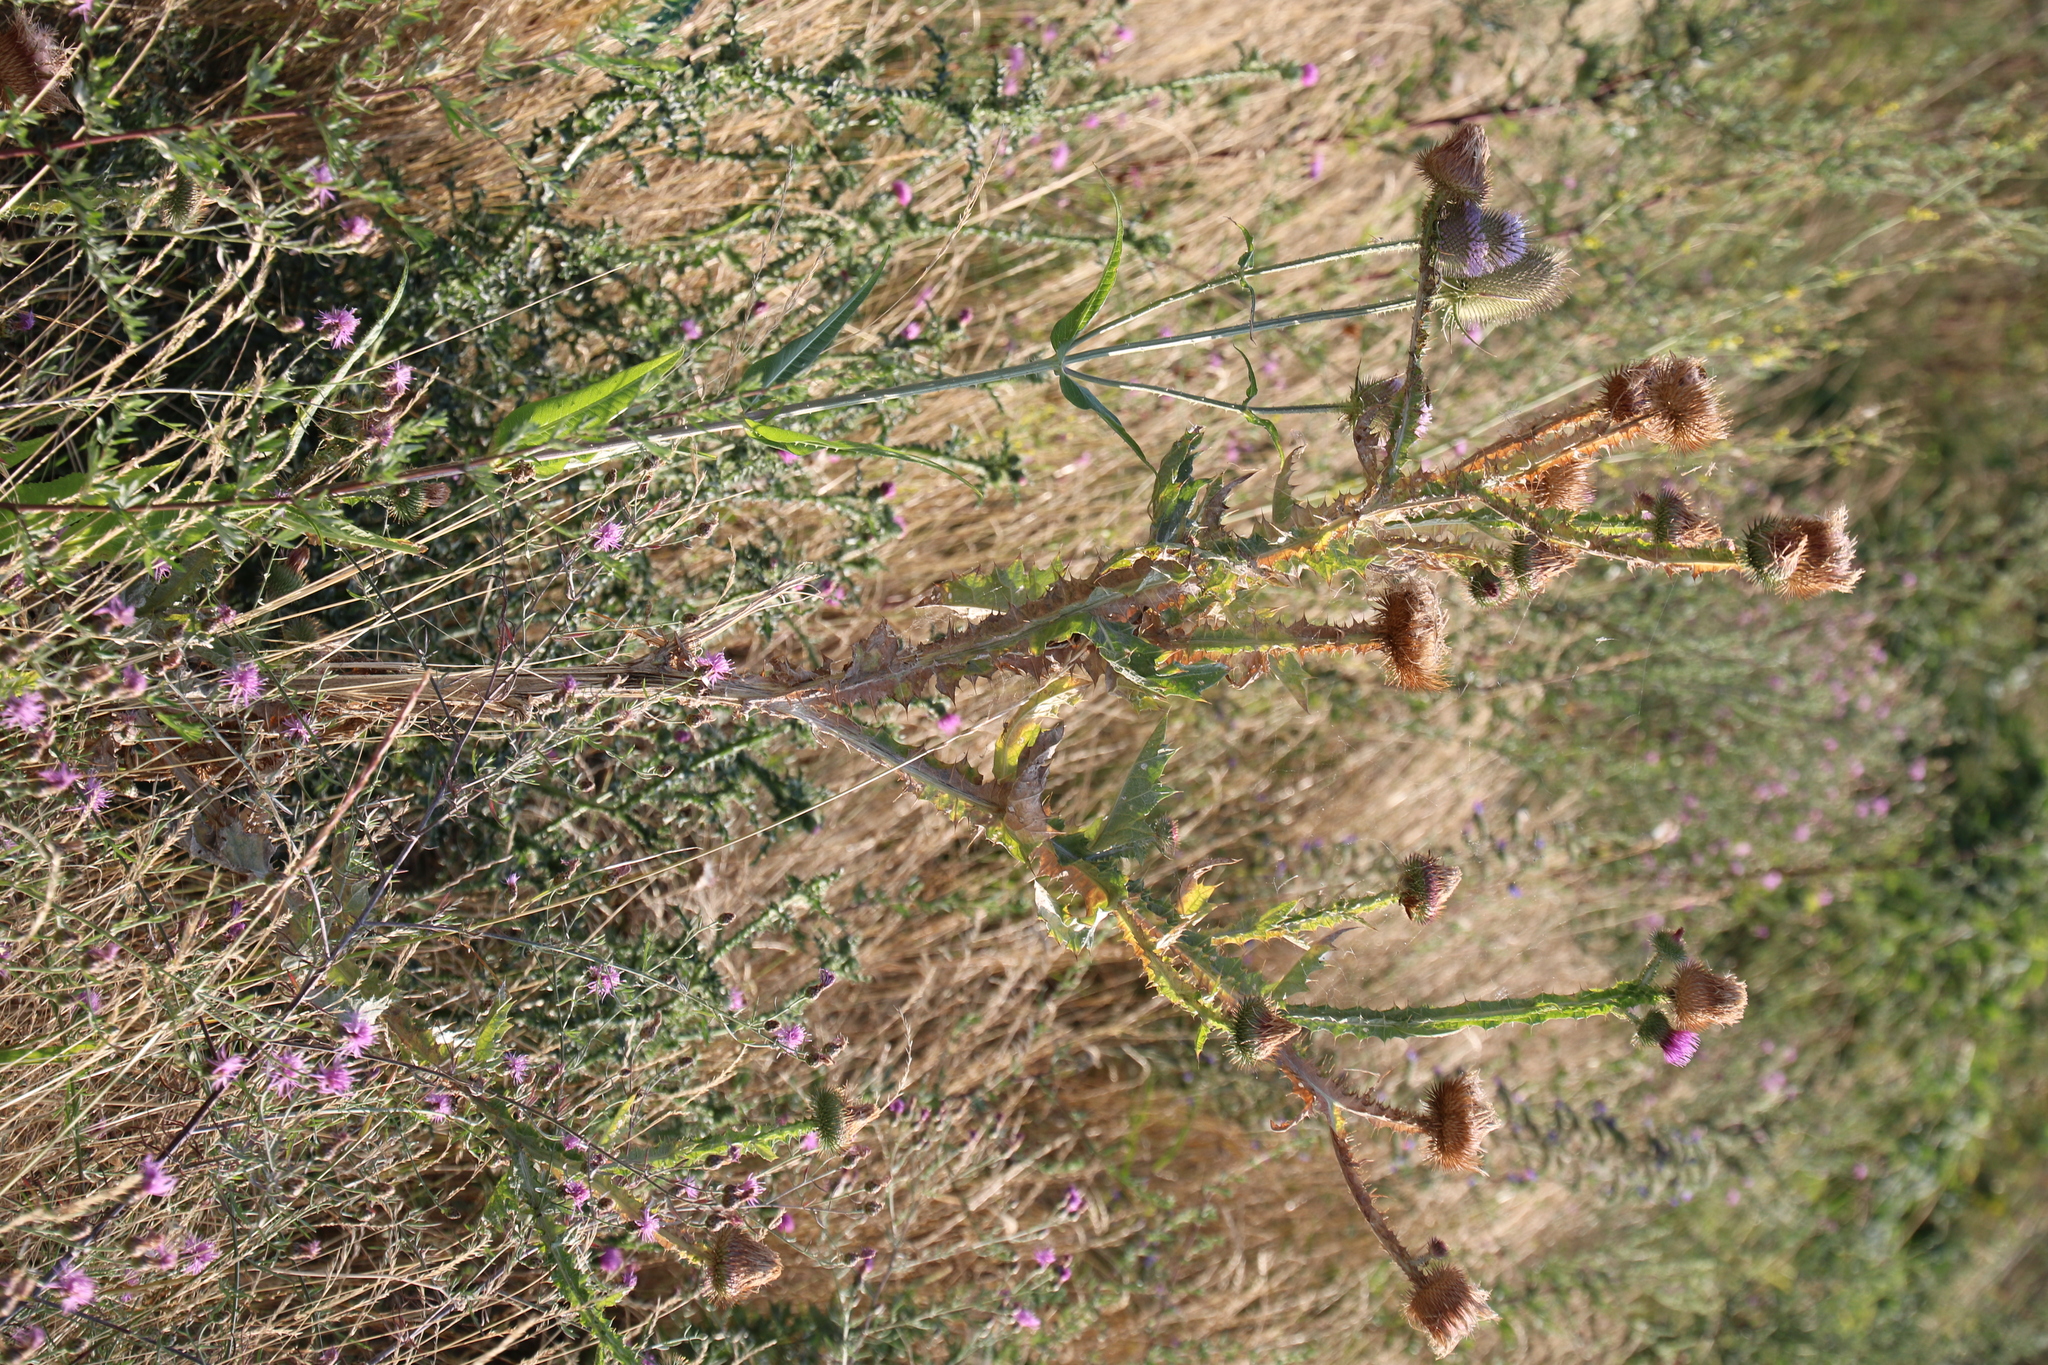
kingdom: Plantae
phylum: Tracheophyta
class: Magnoliopsida
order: Asterales
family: Asteraceae
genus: Onopordum
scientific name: Onopordum acanthium
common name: Scotch thistle
